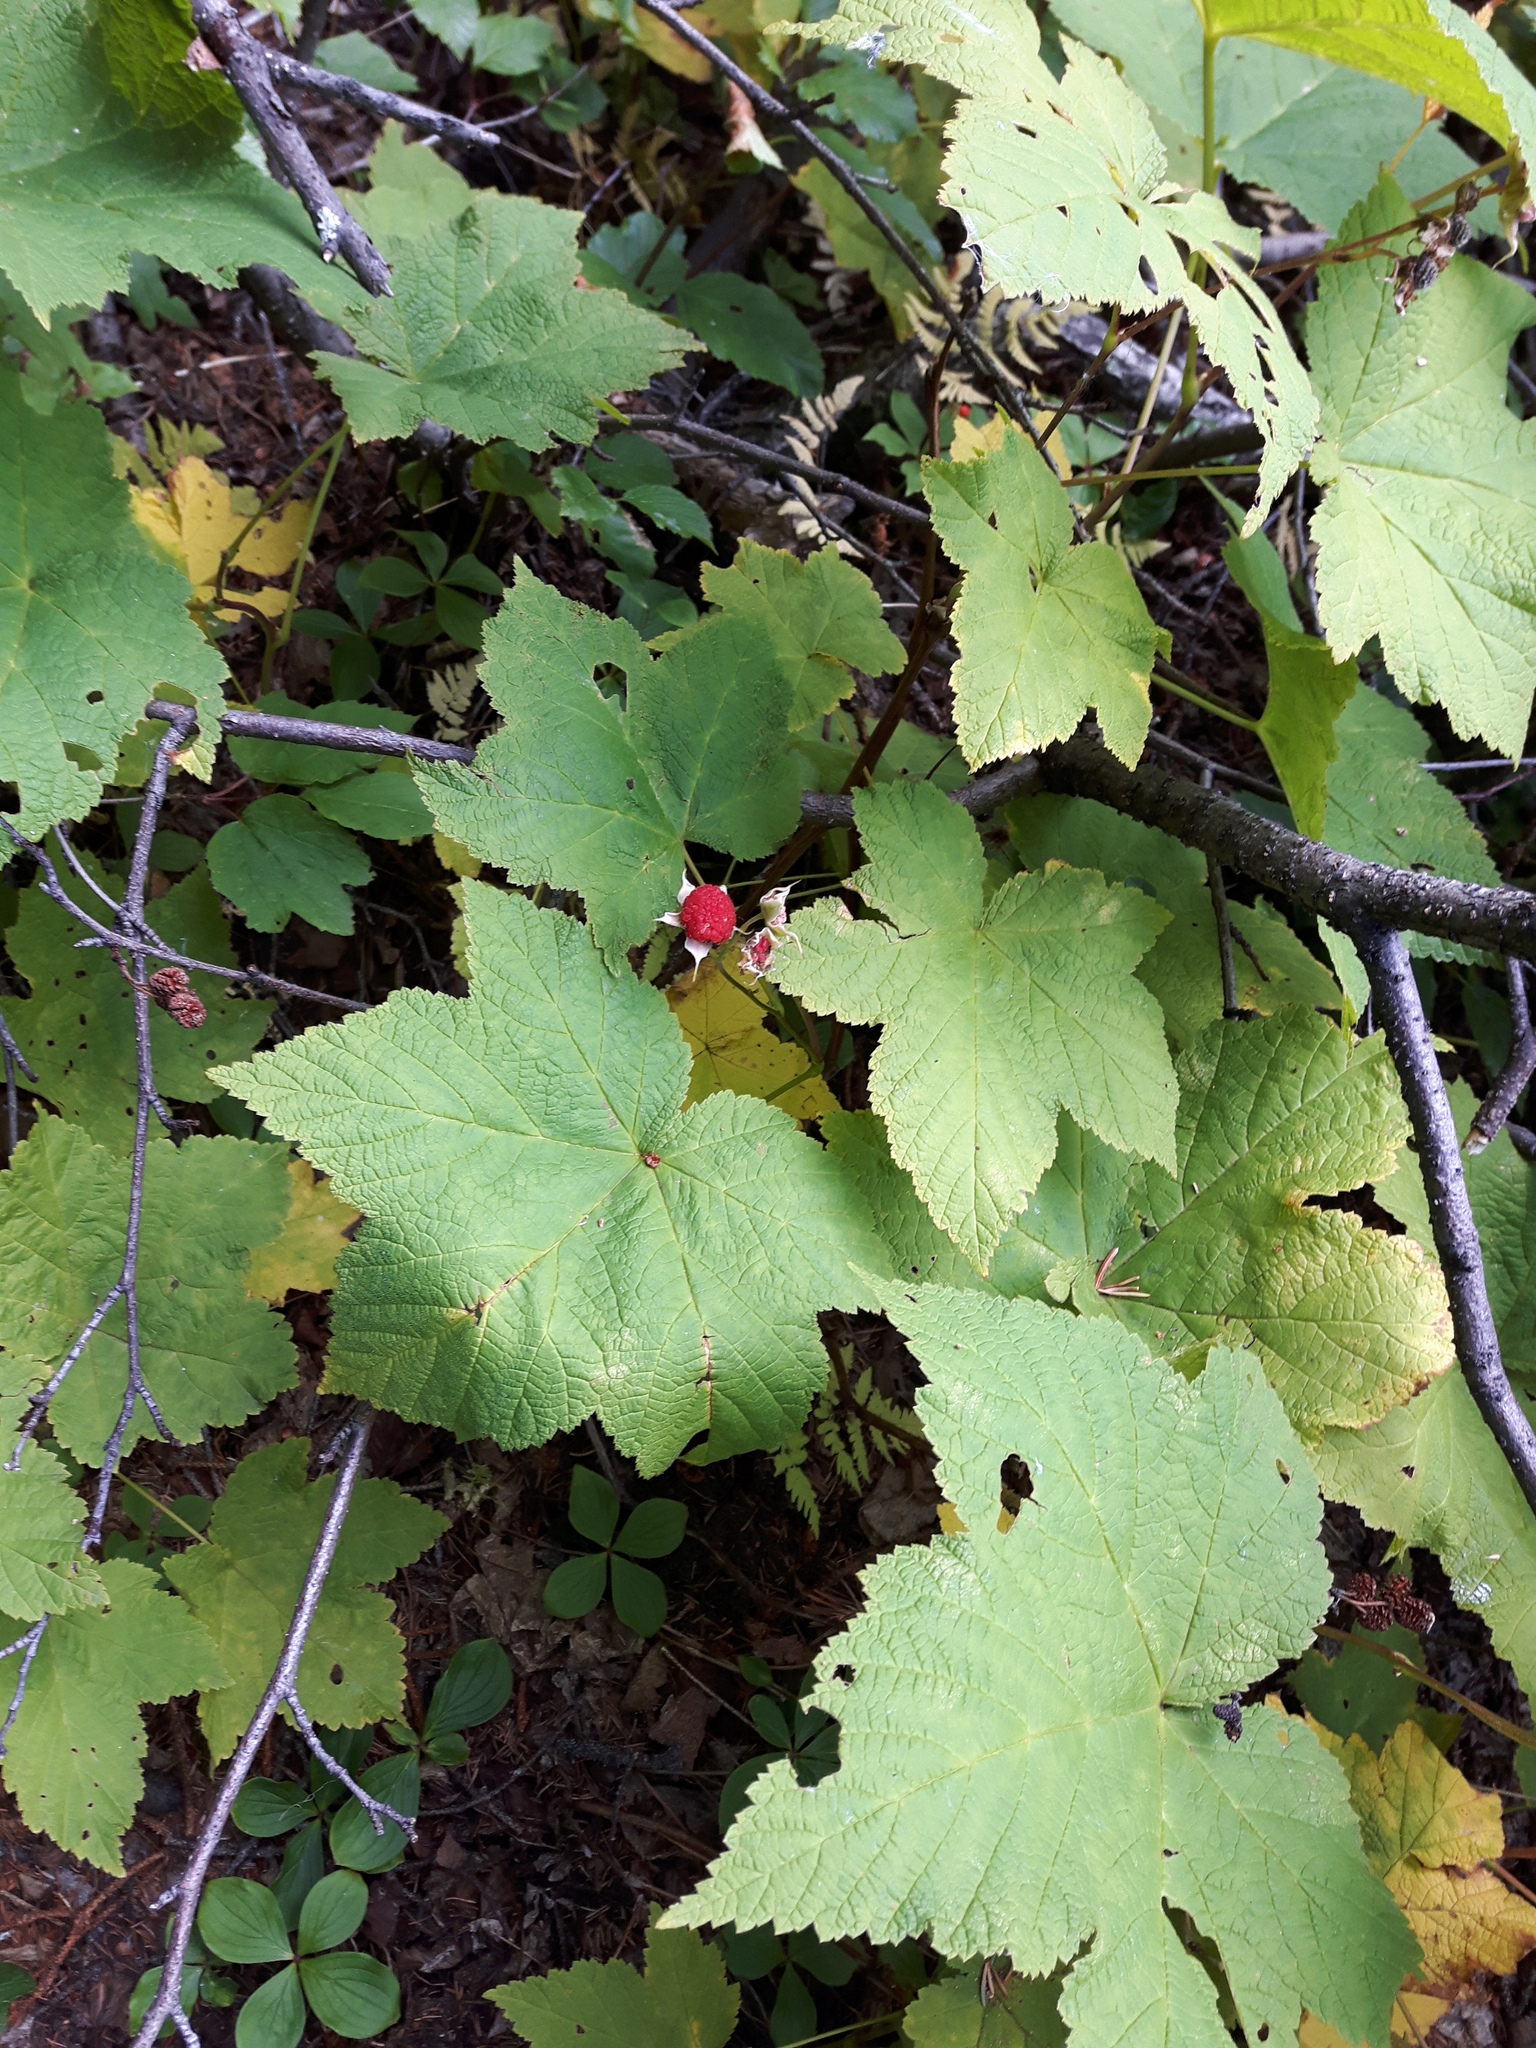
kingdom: Plantae
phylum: Tracheophyta
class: Magnoliopsida
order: Rosales
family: Rosaceae
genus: Rubus
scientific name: Rubus parviflorus
